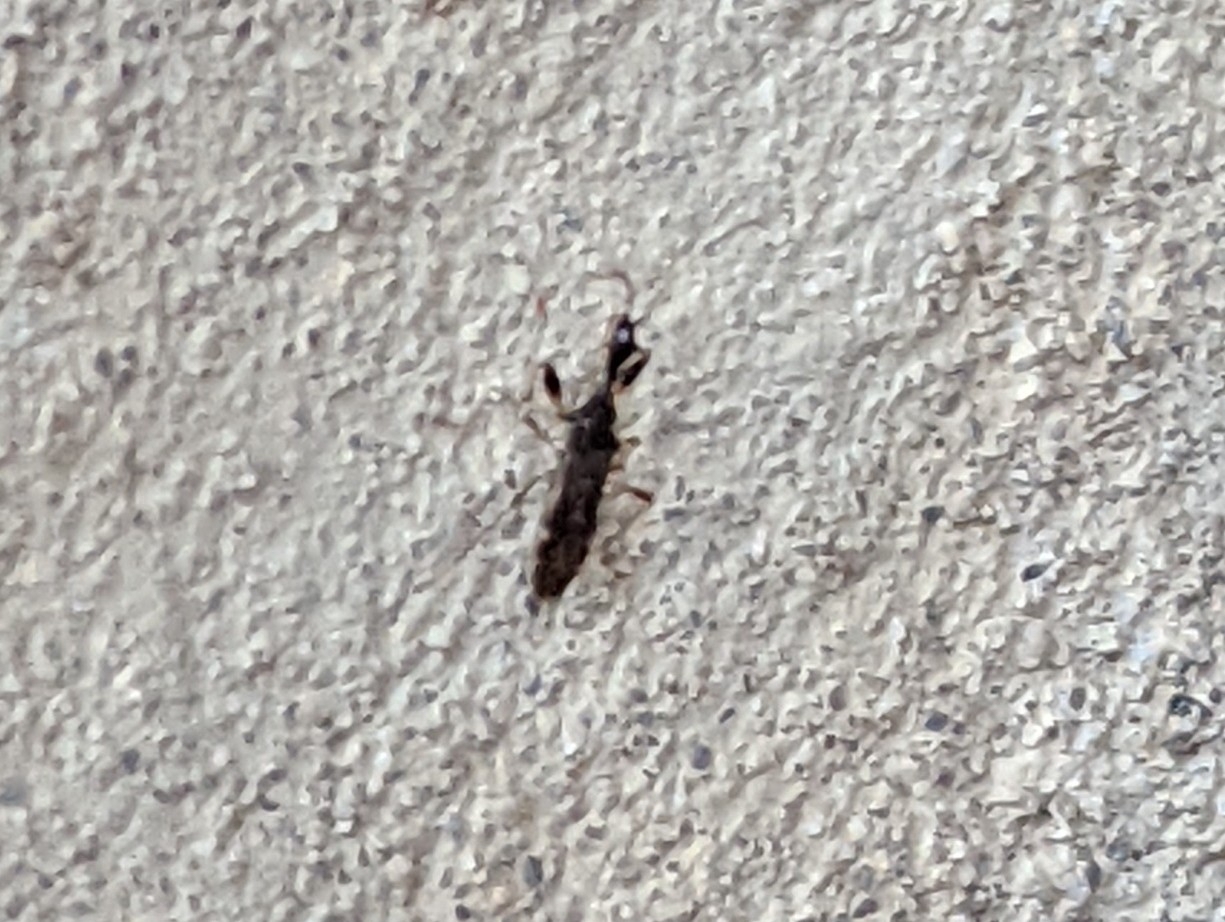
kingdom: Animalia
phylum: Arthropoda
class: Insecta
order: Hemiptera
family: Rhyparochromidae
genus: Myodocha
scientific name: Myodocha serripes
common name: Long-necked seed bug
